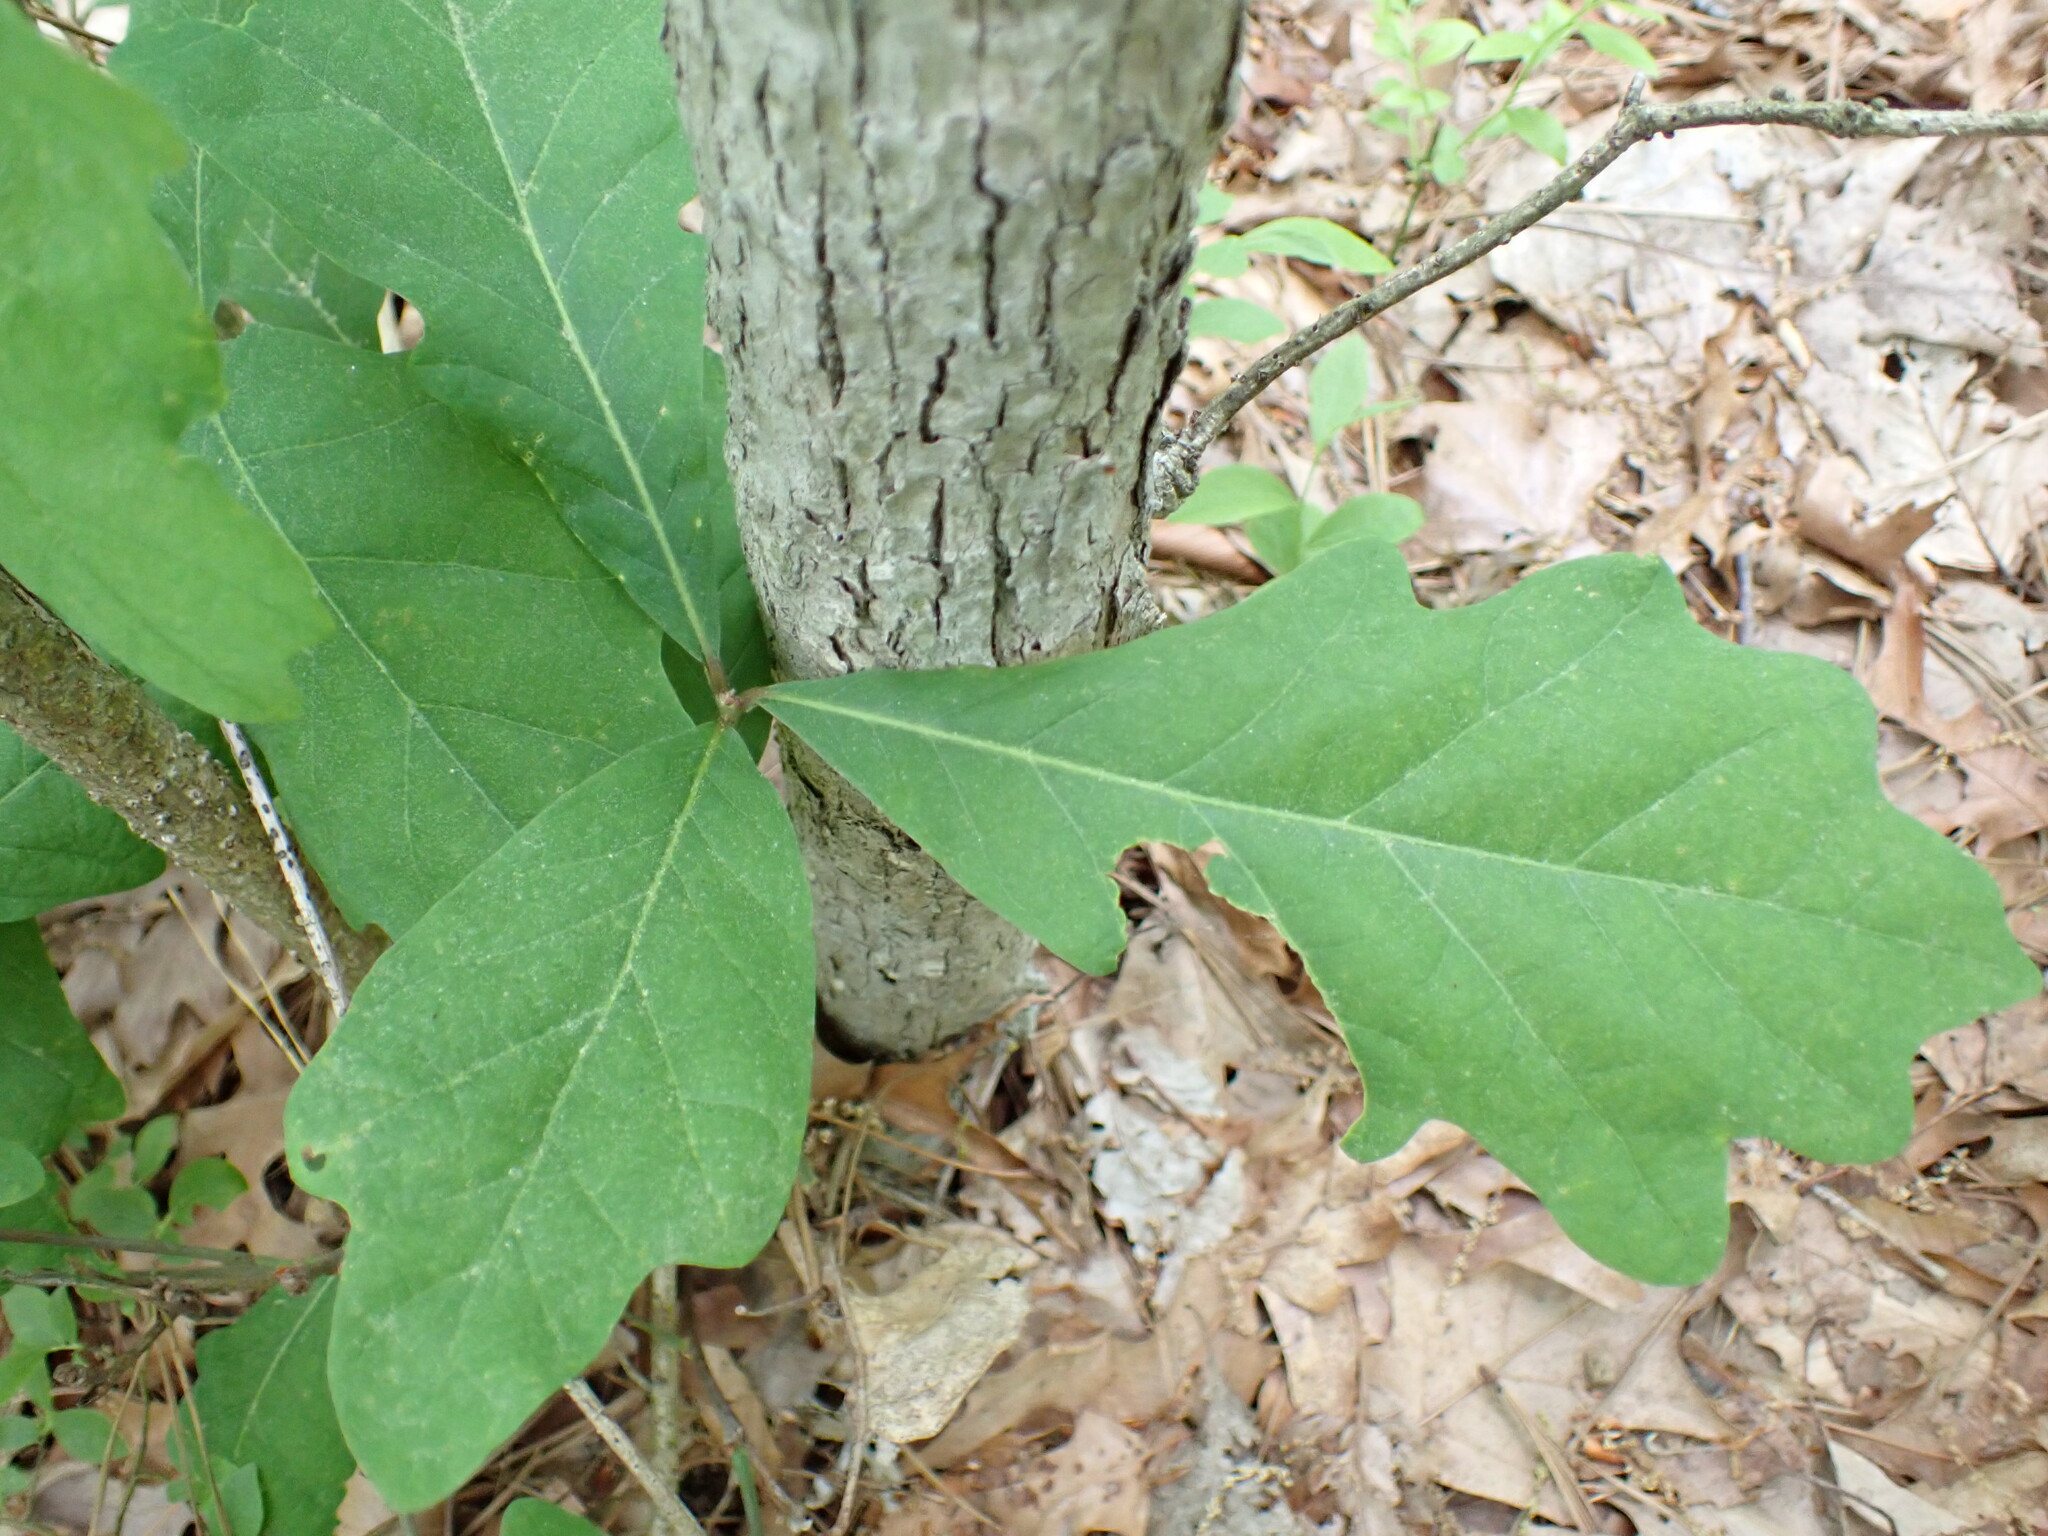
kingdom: Plantae
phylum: Tracheophyta
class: Magnoliopsida
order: Fagales
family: Fagaceae
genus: Quercus
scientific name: Quercus alba
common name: White oak
